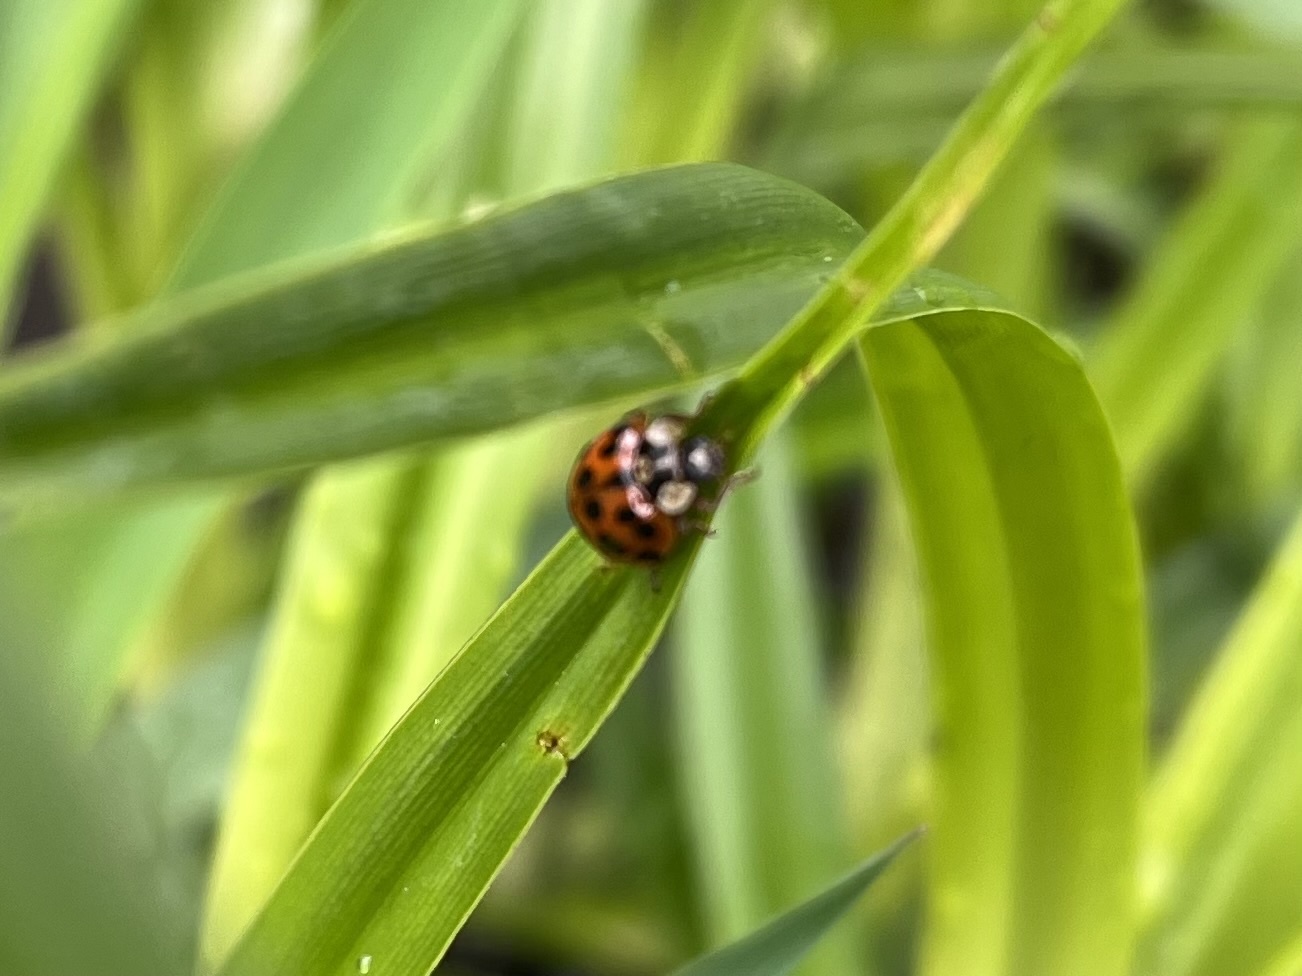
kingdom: Animalia
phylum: Arthropoda
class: Insecta
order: Coleoptera
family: Coccinellidae
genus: Harmonia
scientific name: Harmonia axyridis
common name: Harlequin ladybird
